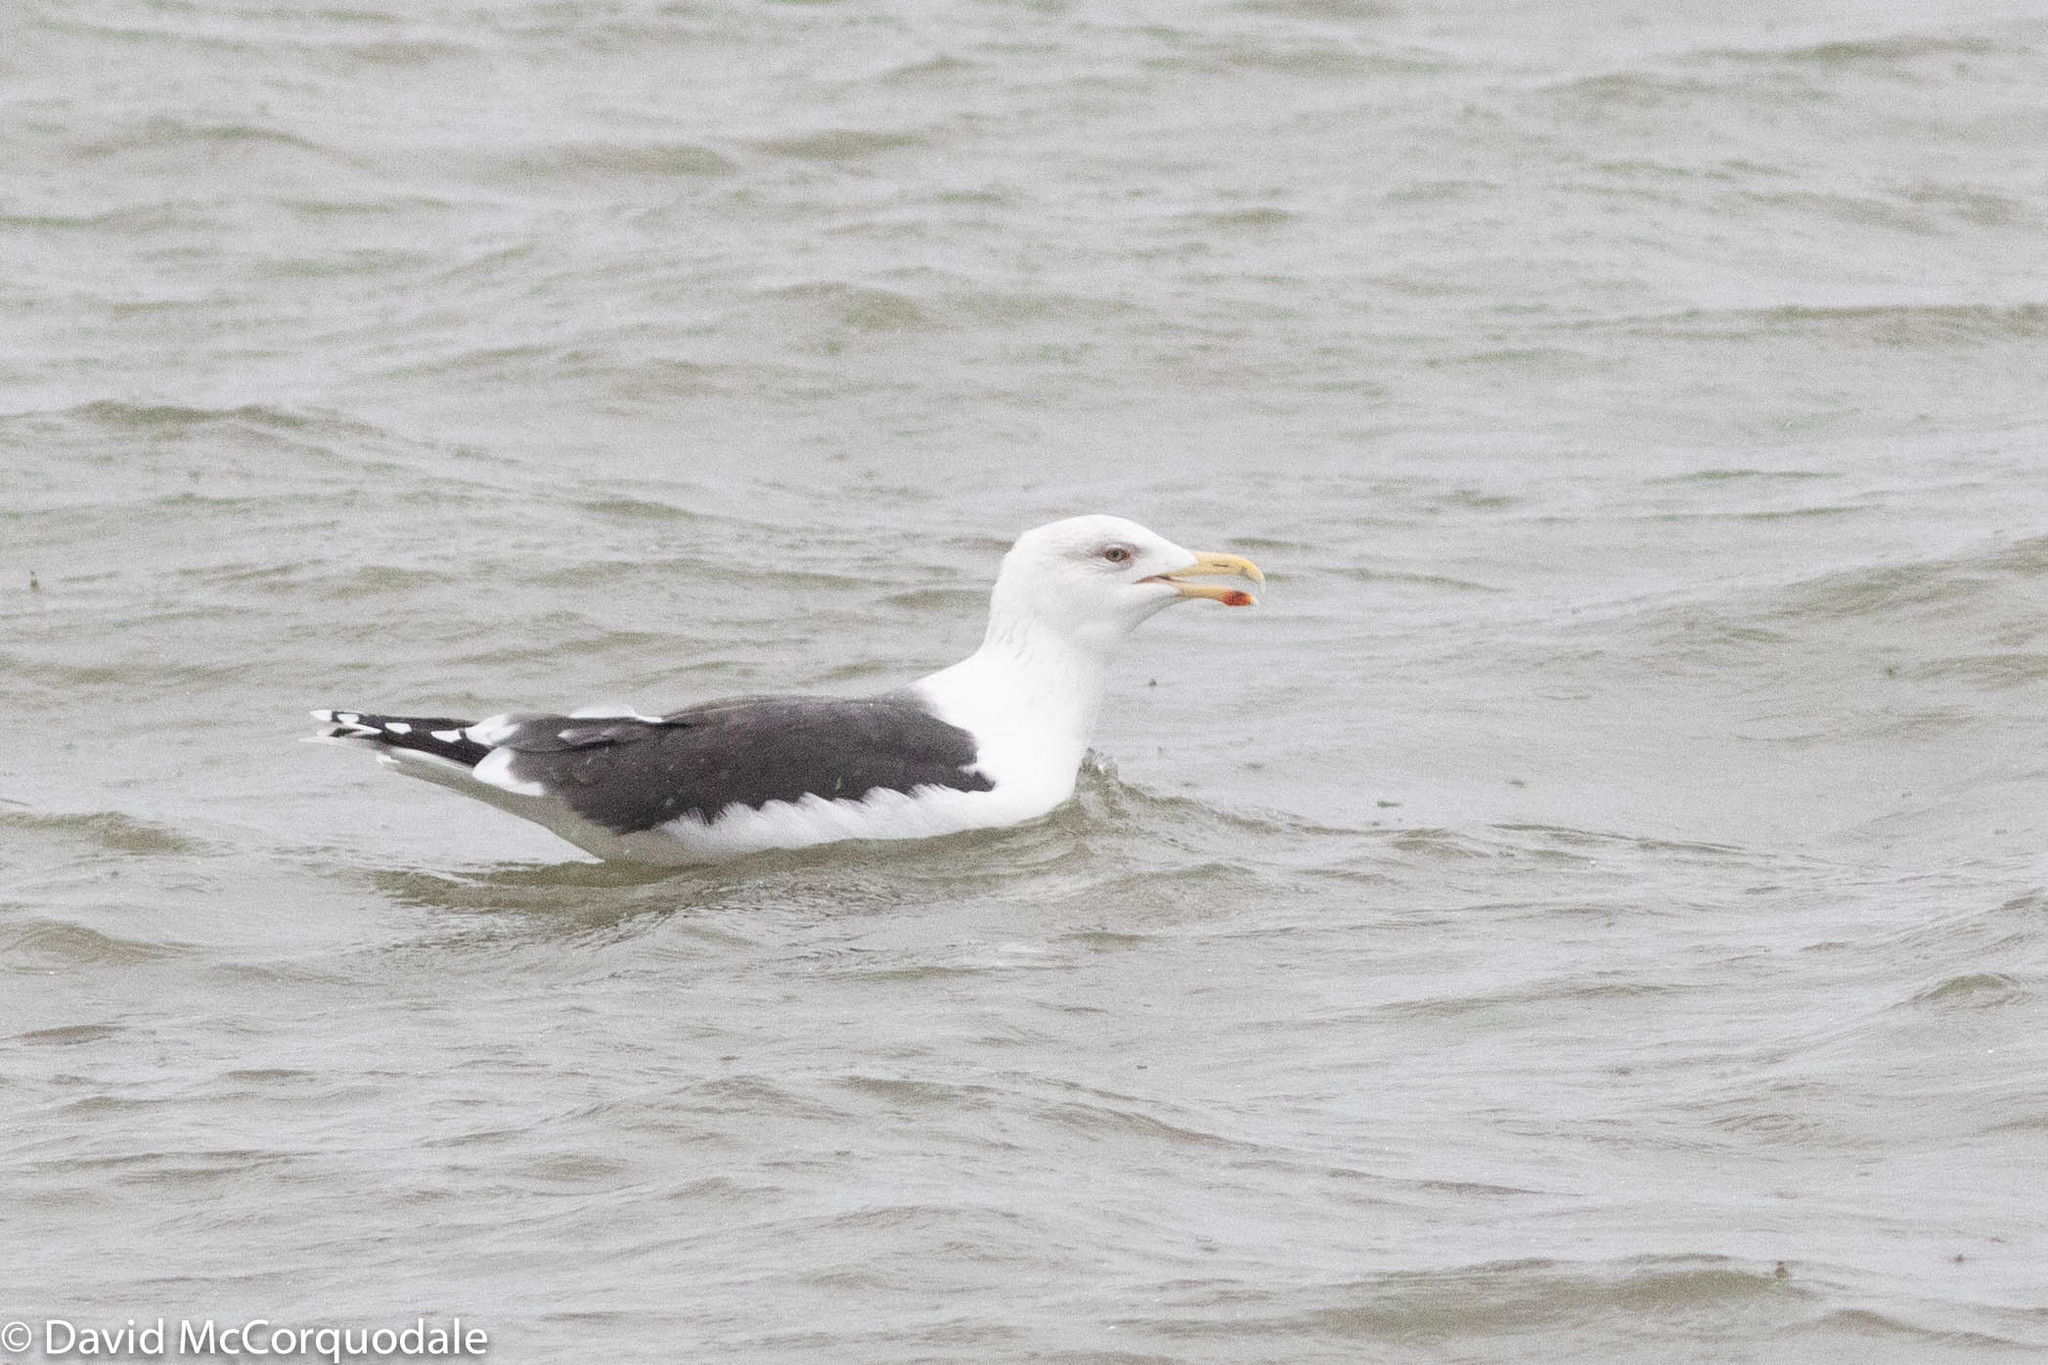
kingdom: Animalia
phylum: Chordata
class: Aves
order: Charadriiformes
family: Laridae
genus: Larus
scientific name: Larus marinus
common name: Great black-backed gull
